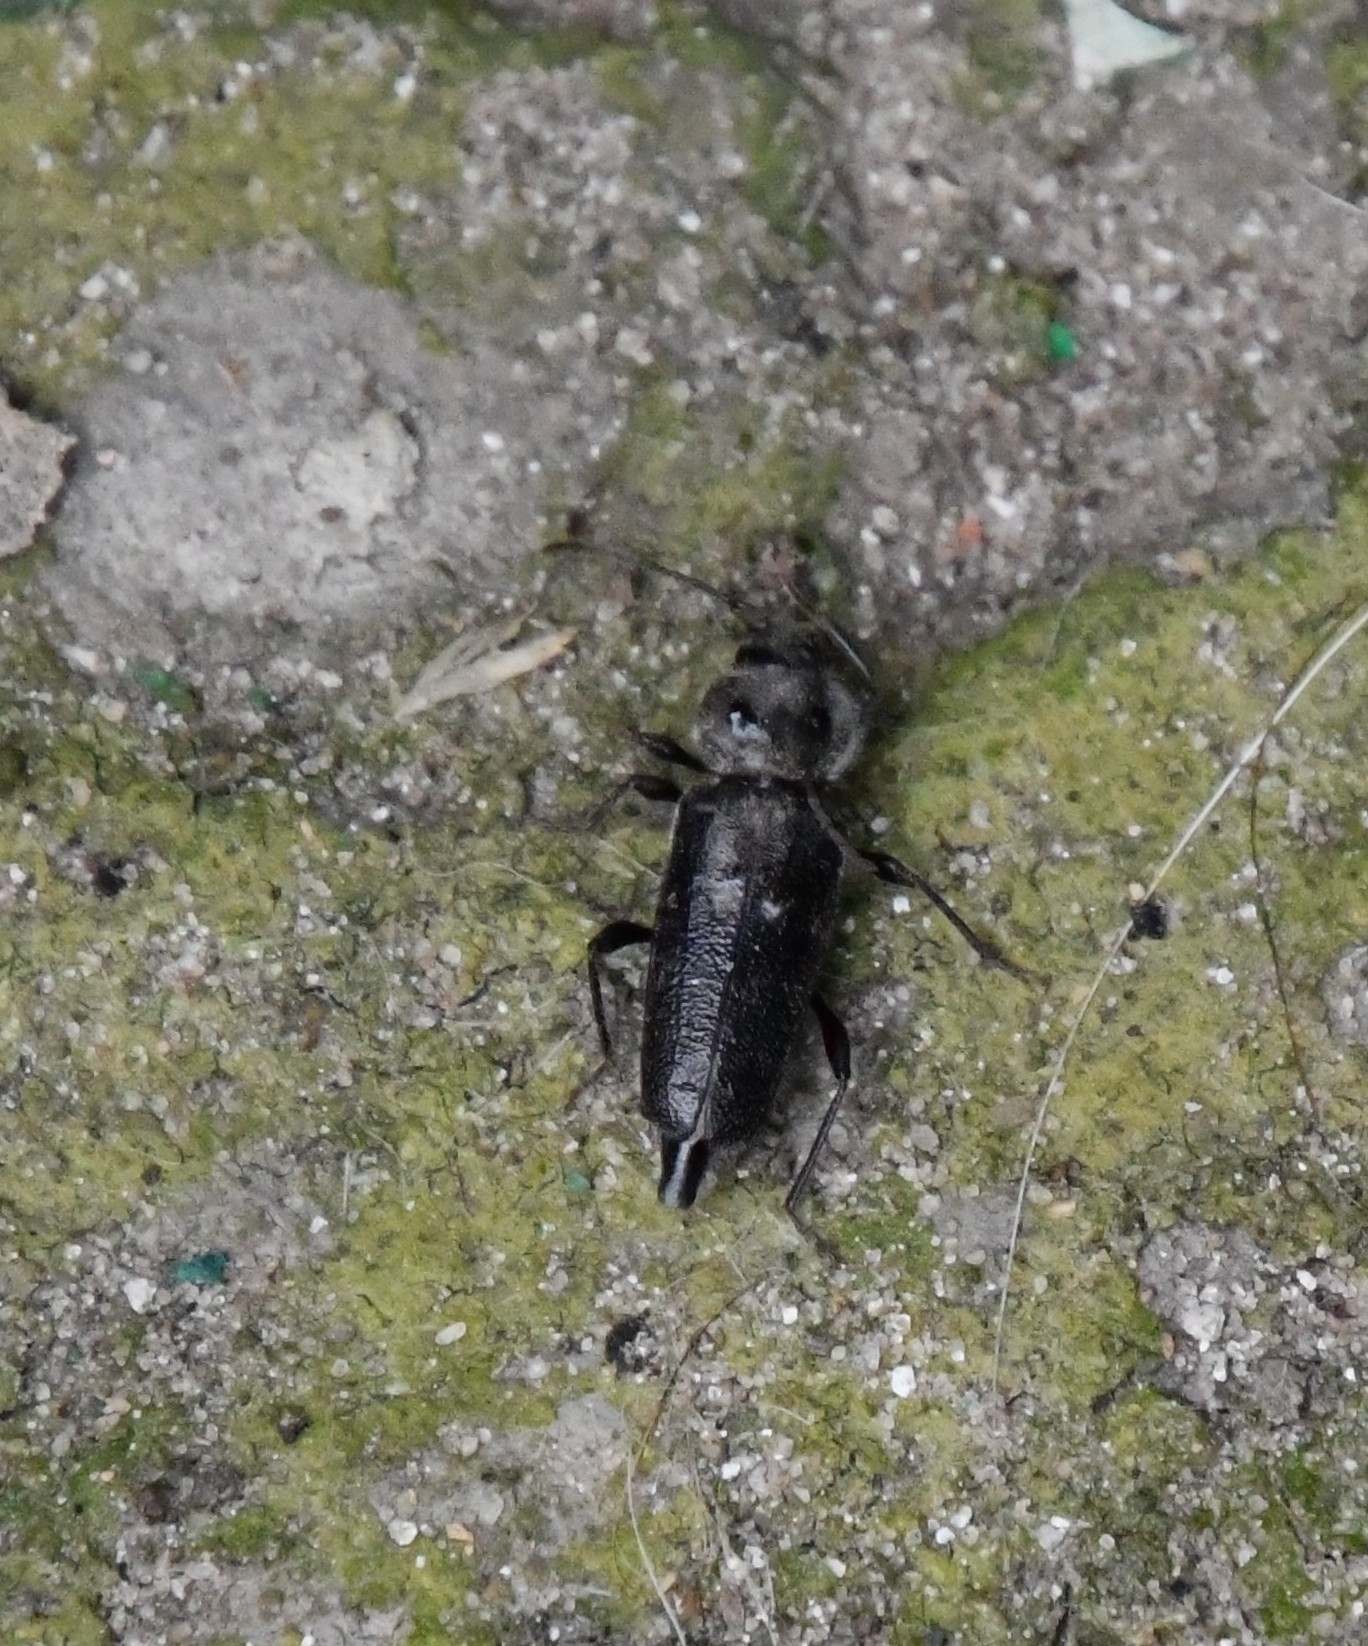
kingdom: Animalia
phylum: Arthropoda
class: Insecta
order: Coleoptera
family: Cerambycidae
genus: Hylotrupes
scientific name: Hylotrupes bajulus
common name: Old house borer
